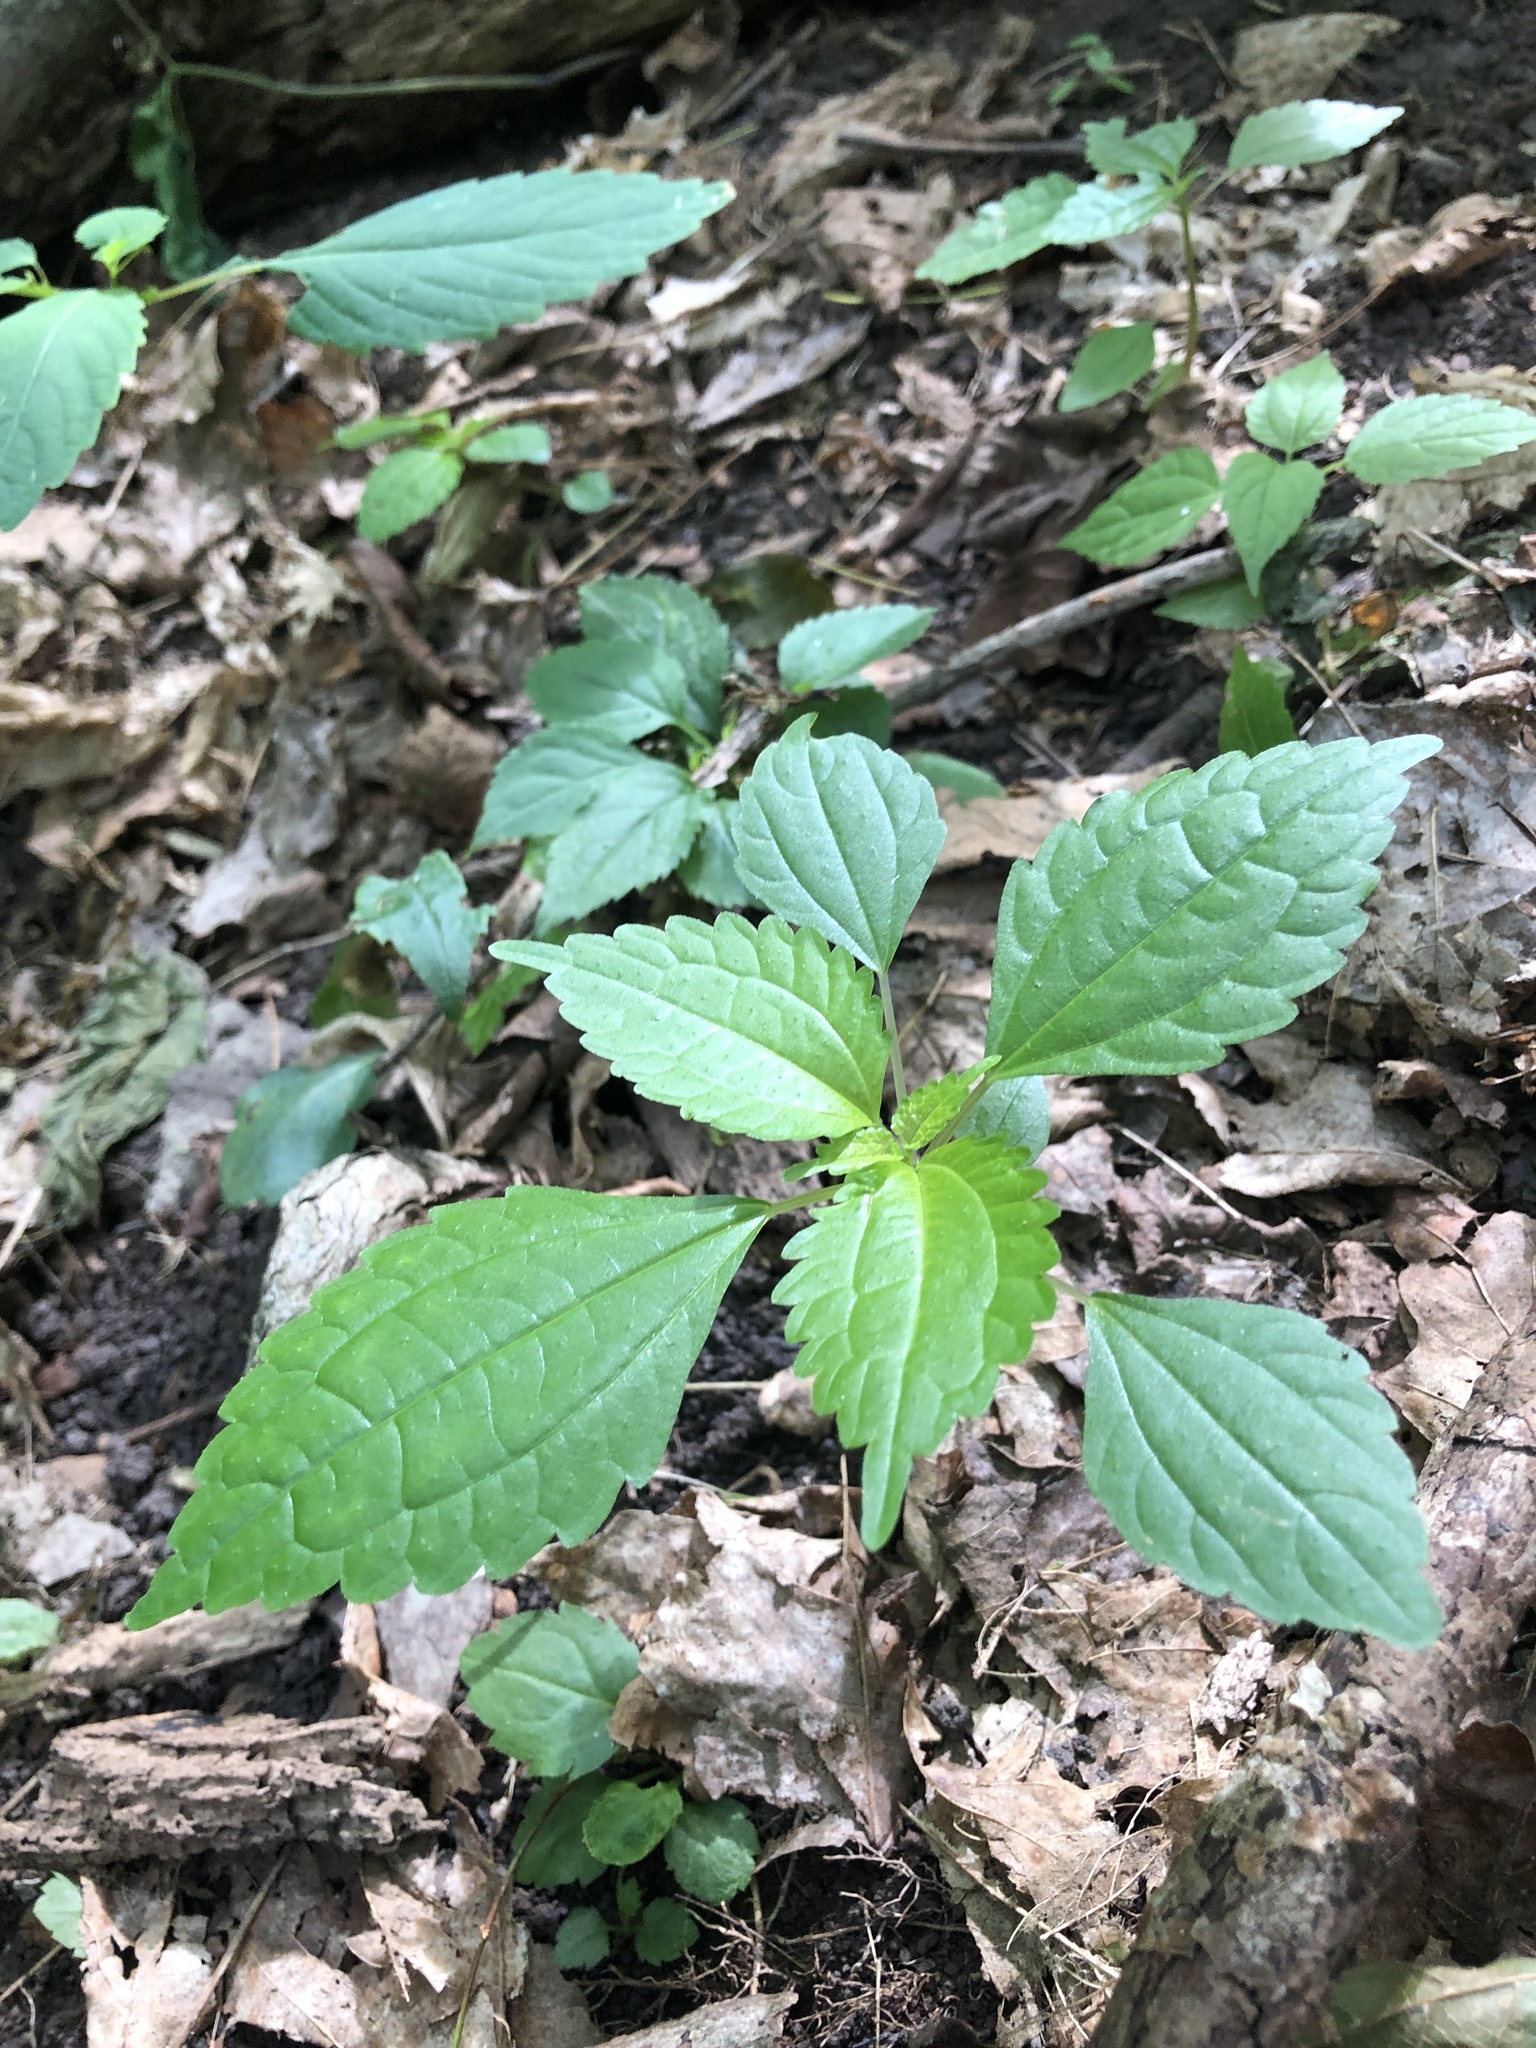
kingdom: Plantae
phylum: Tracheophyta
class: Magnoliopsida
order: Rosales
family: Urticaceae
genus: Pilea
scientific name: Pilea pumila
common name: Clearweed
